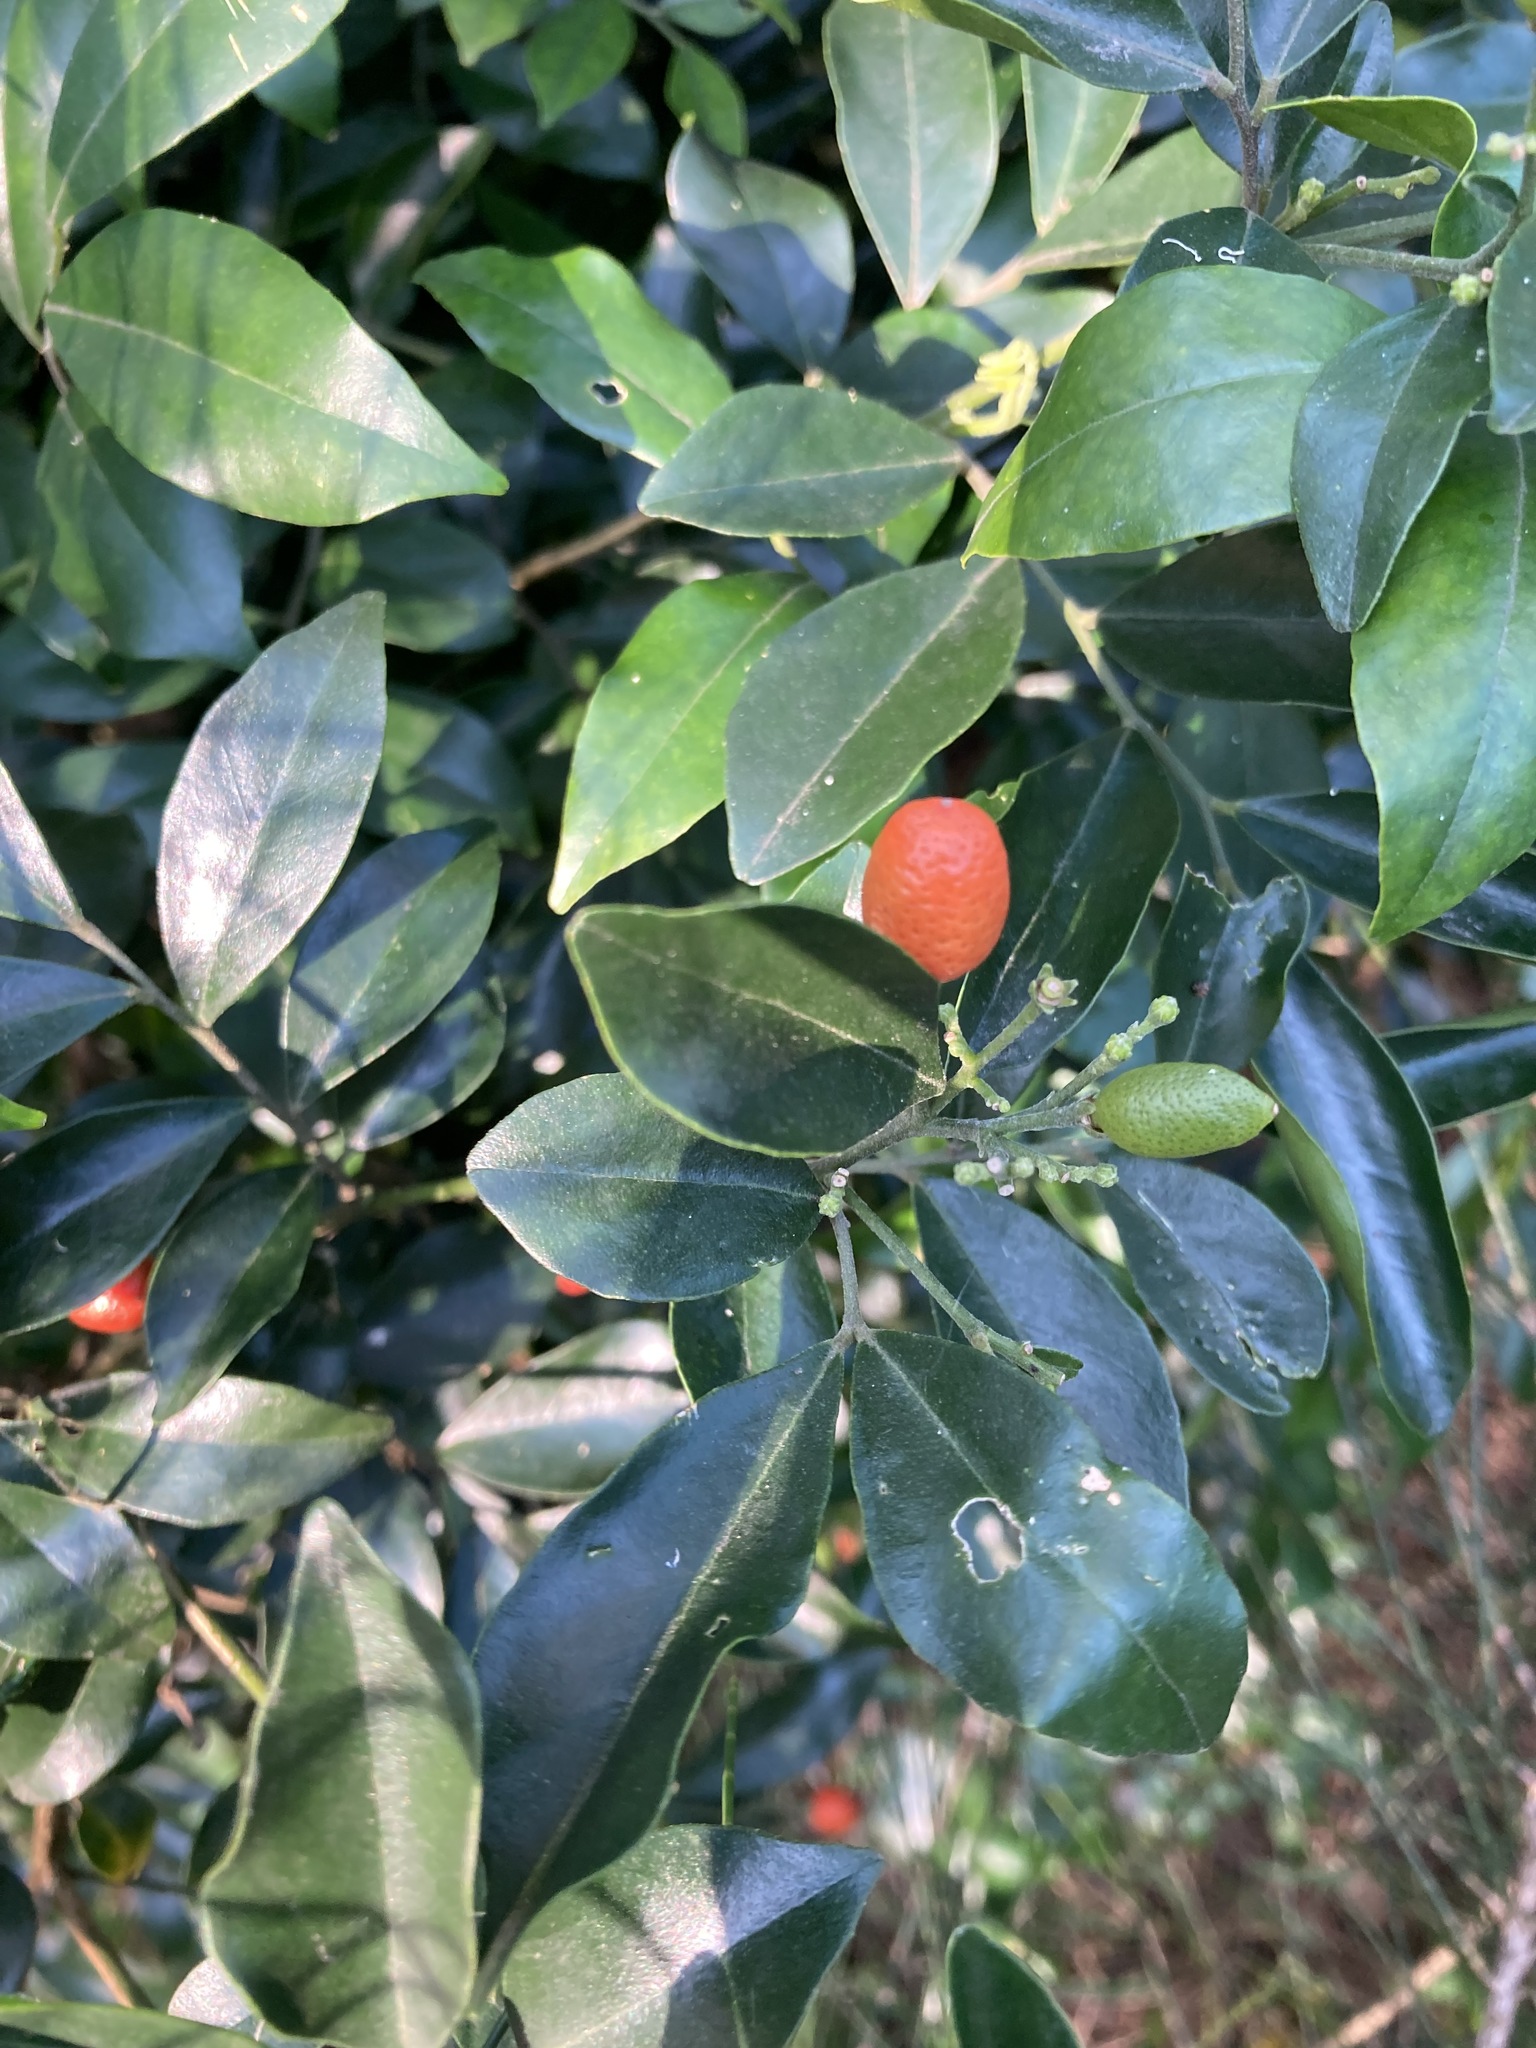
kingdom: Plantae
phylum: Tracheophyta
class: Magnoliopsida
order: Sapindales
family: Rutaceae
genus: Murraya
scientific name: Murraya paniculata
